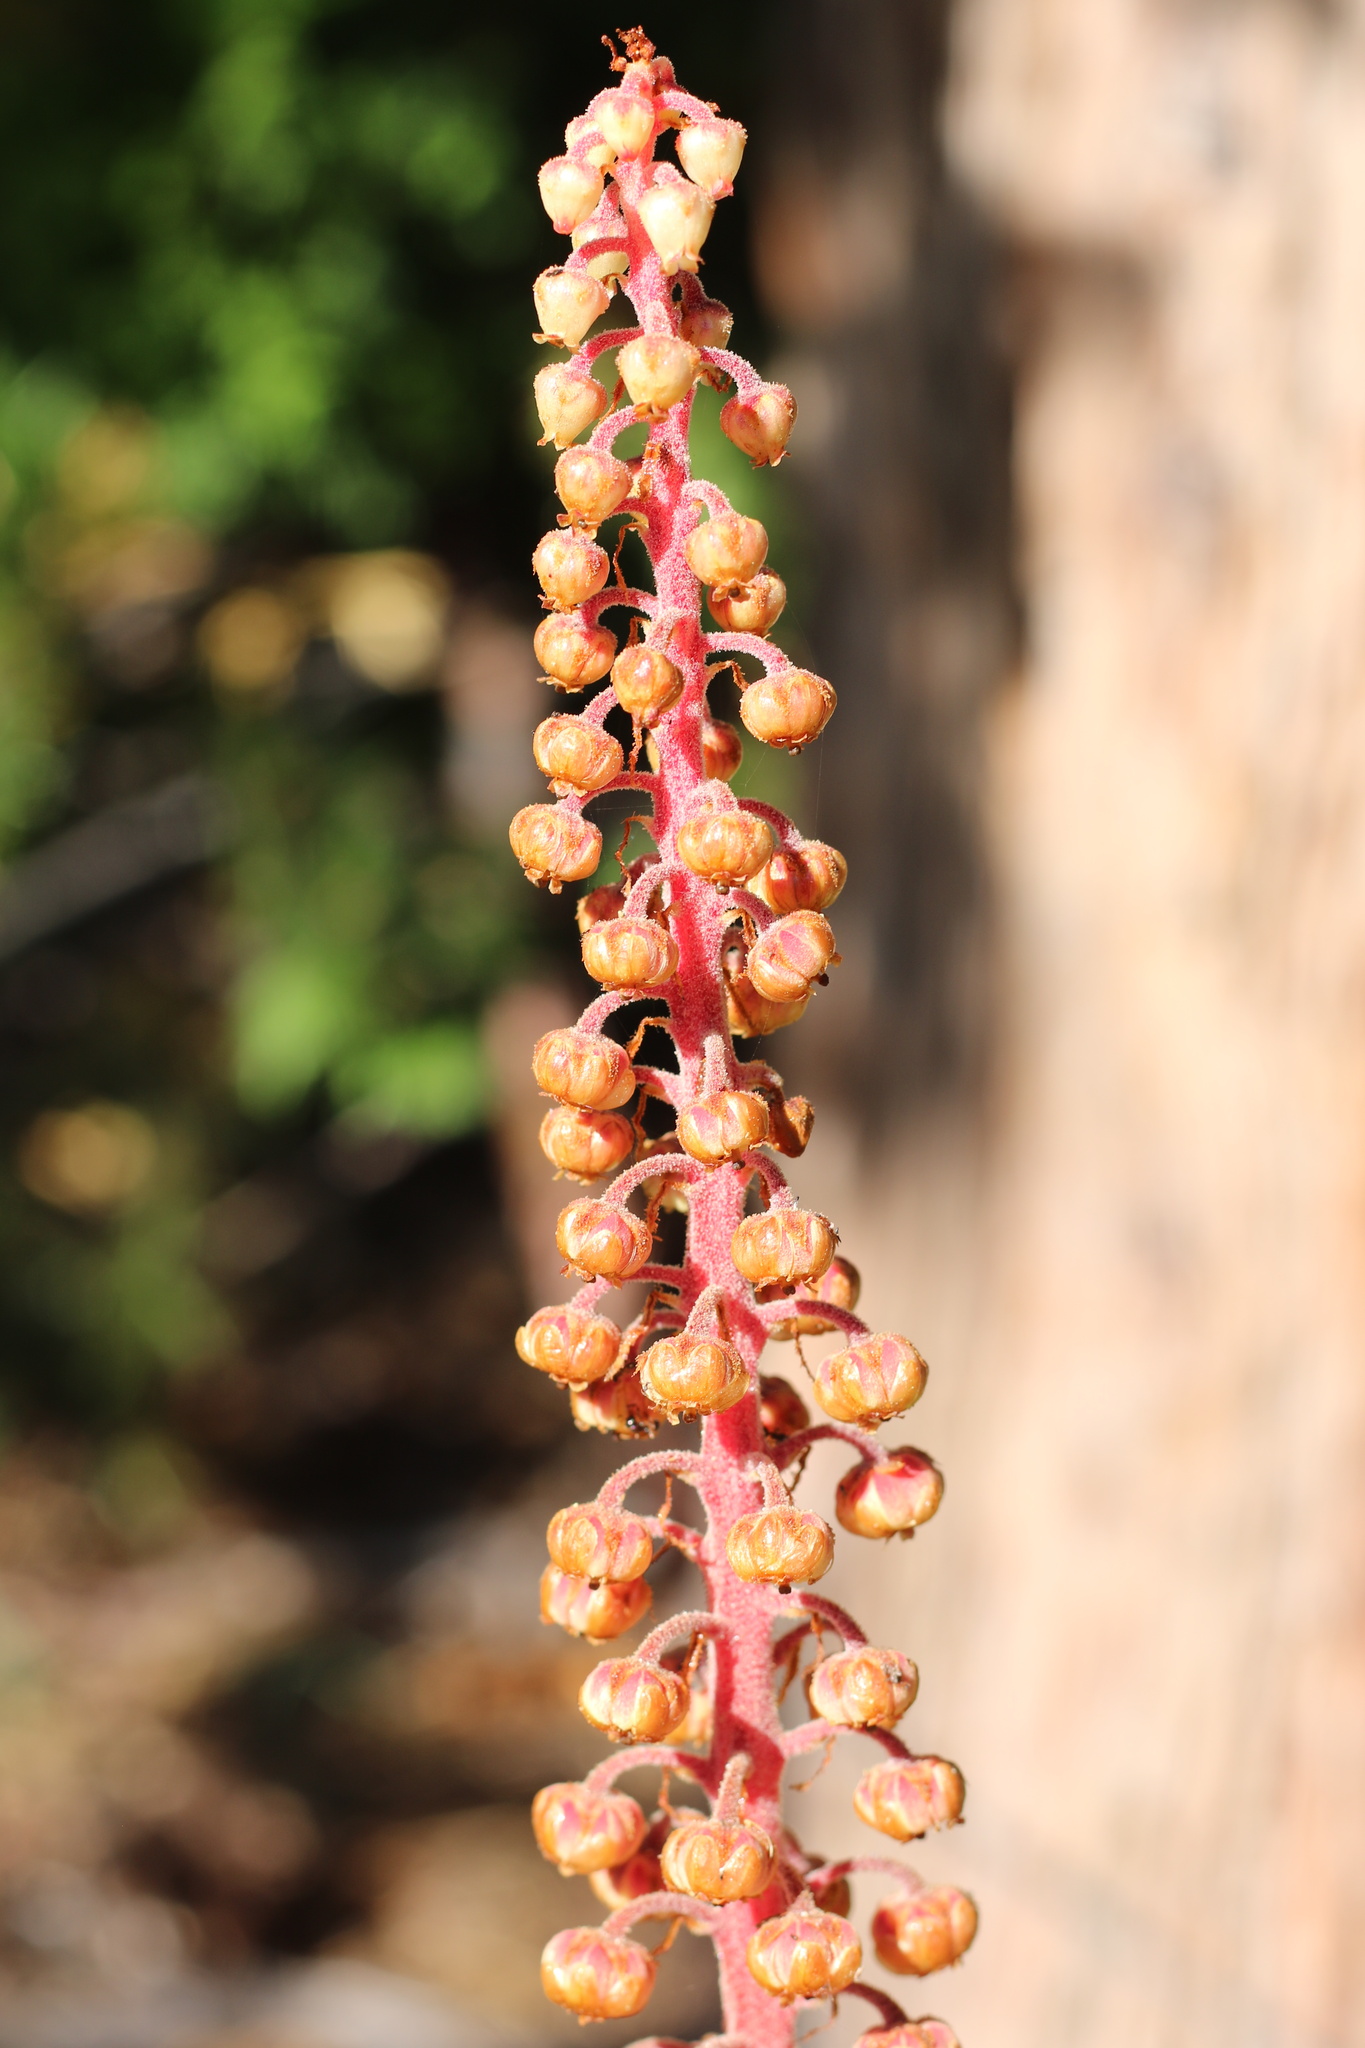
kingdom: Plantae
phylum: Tracheophyta
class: Magnoliopsida
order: Ericales
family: Ericaceae
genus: Pterospora
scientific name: Pterospora andromedea
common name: Giant bird's-nest
